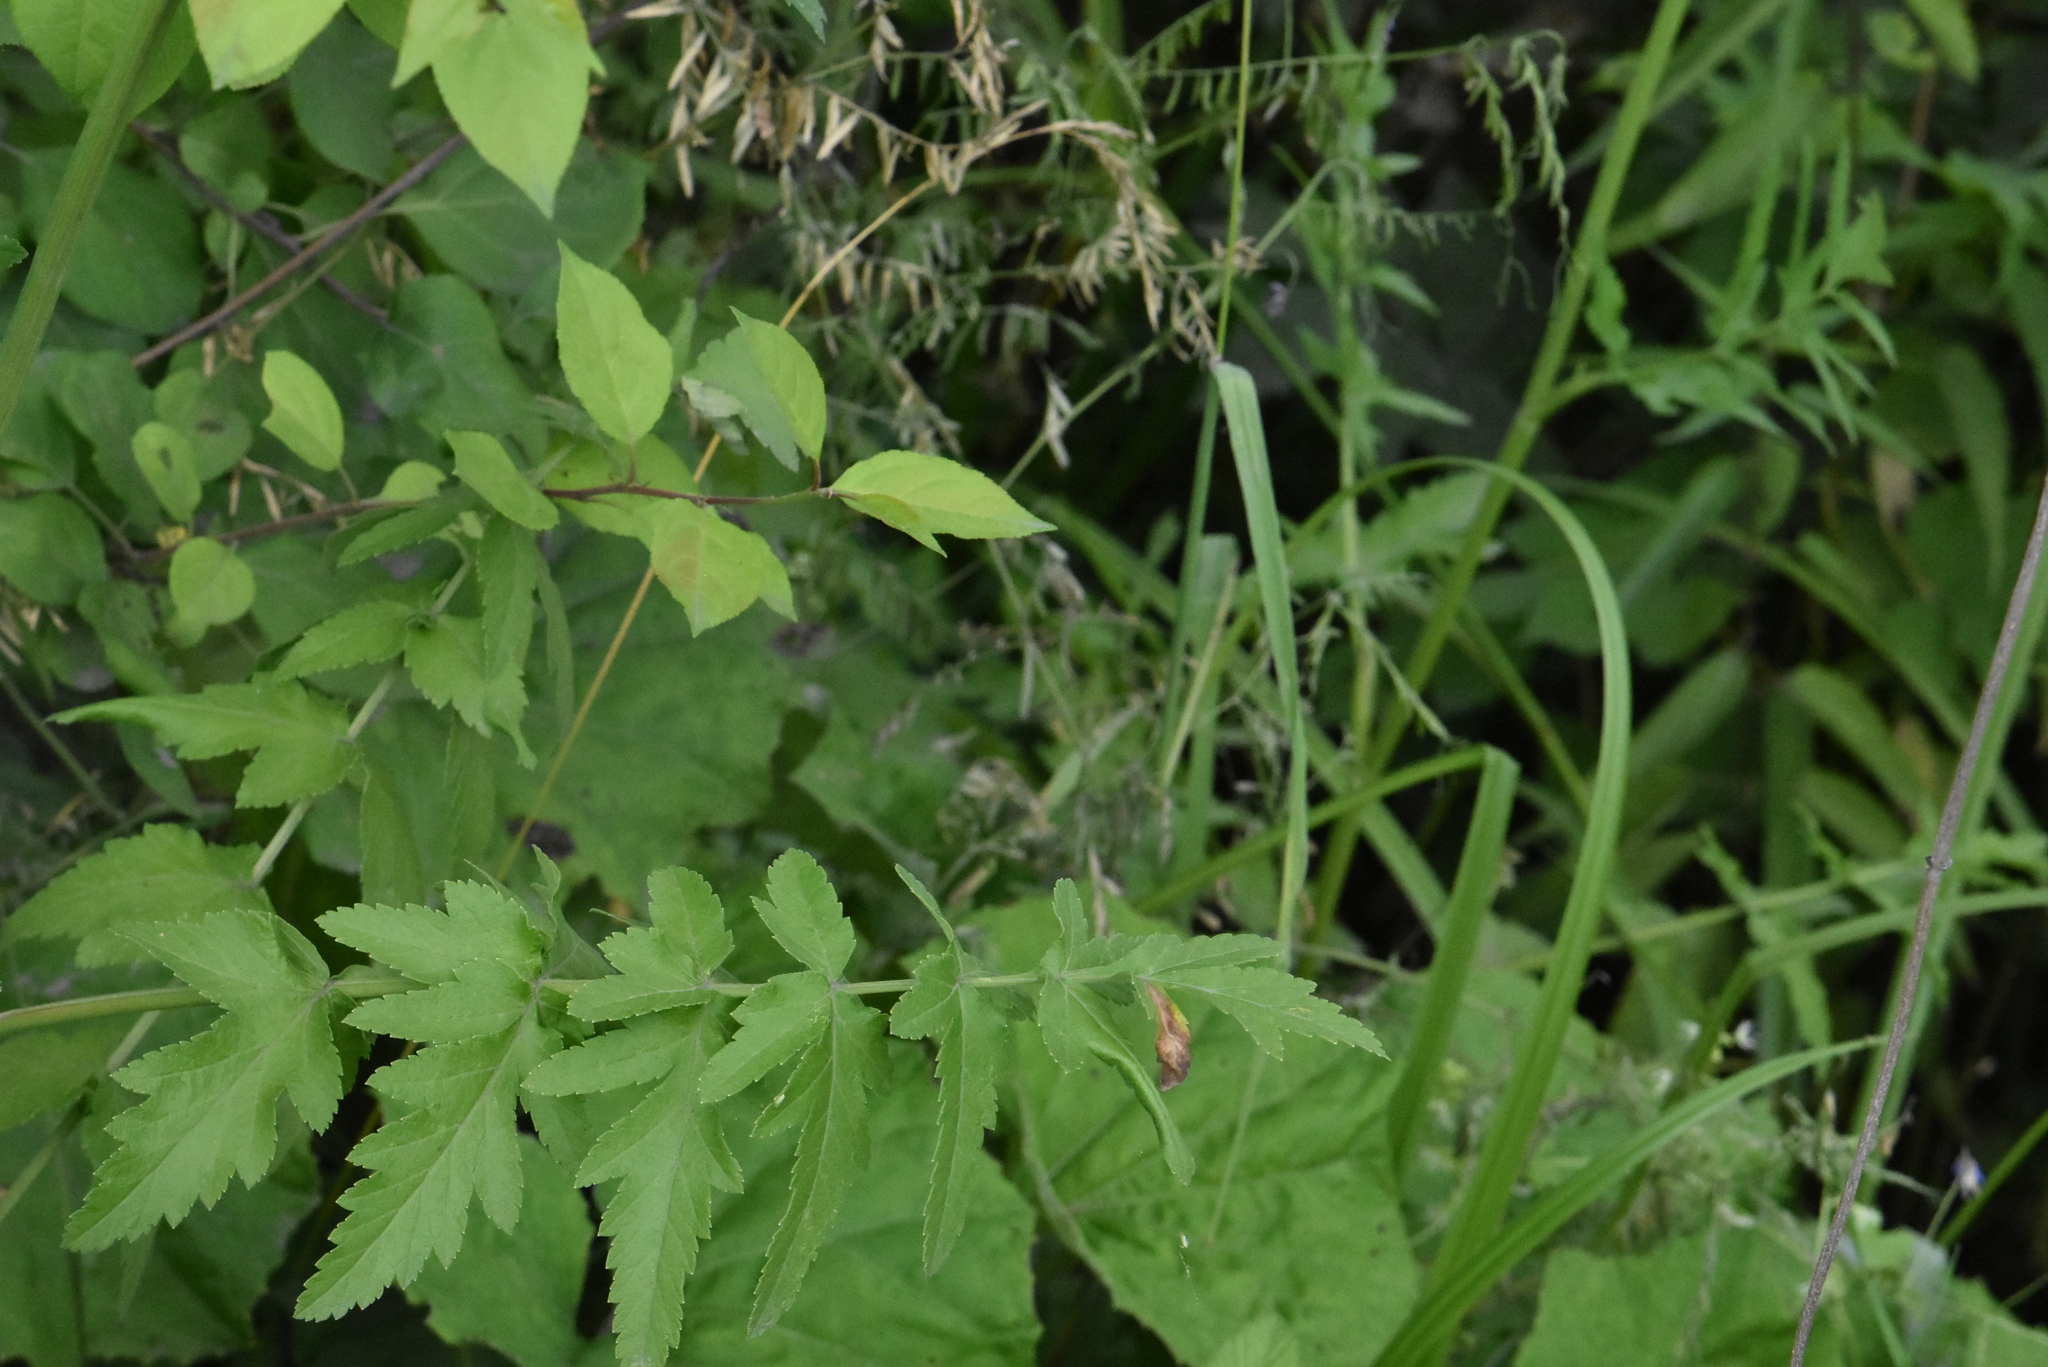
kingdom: Plantae
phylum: Tracheophyta
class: Magnoliopsida
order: Apiales
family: Apiaceae
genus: Pastinaca
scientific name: Pastinaca sativa
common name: Wild parsnip
